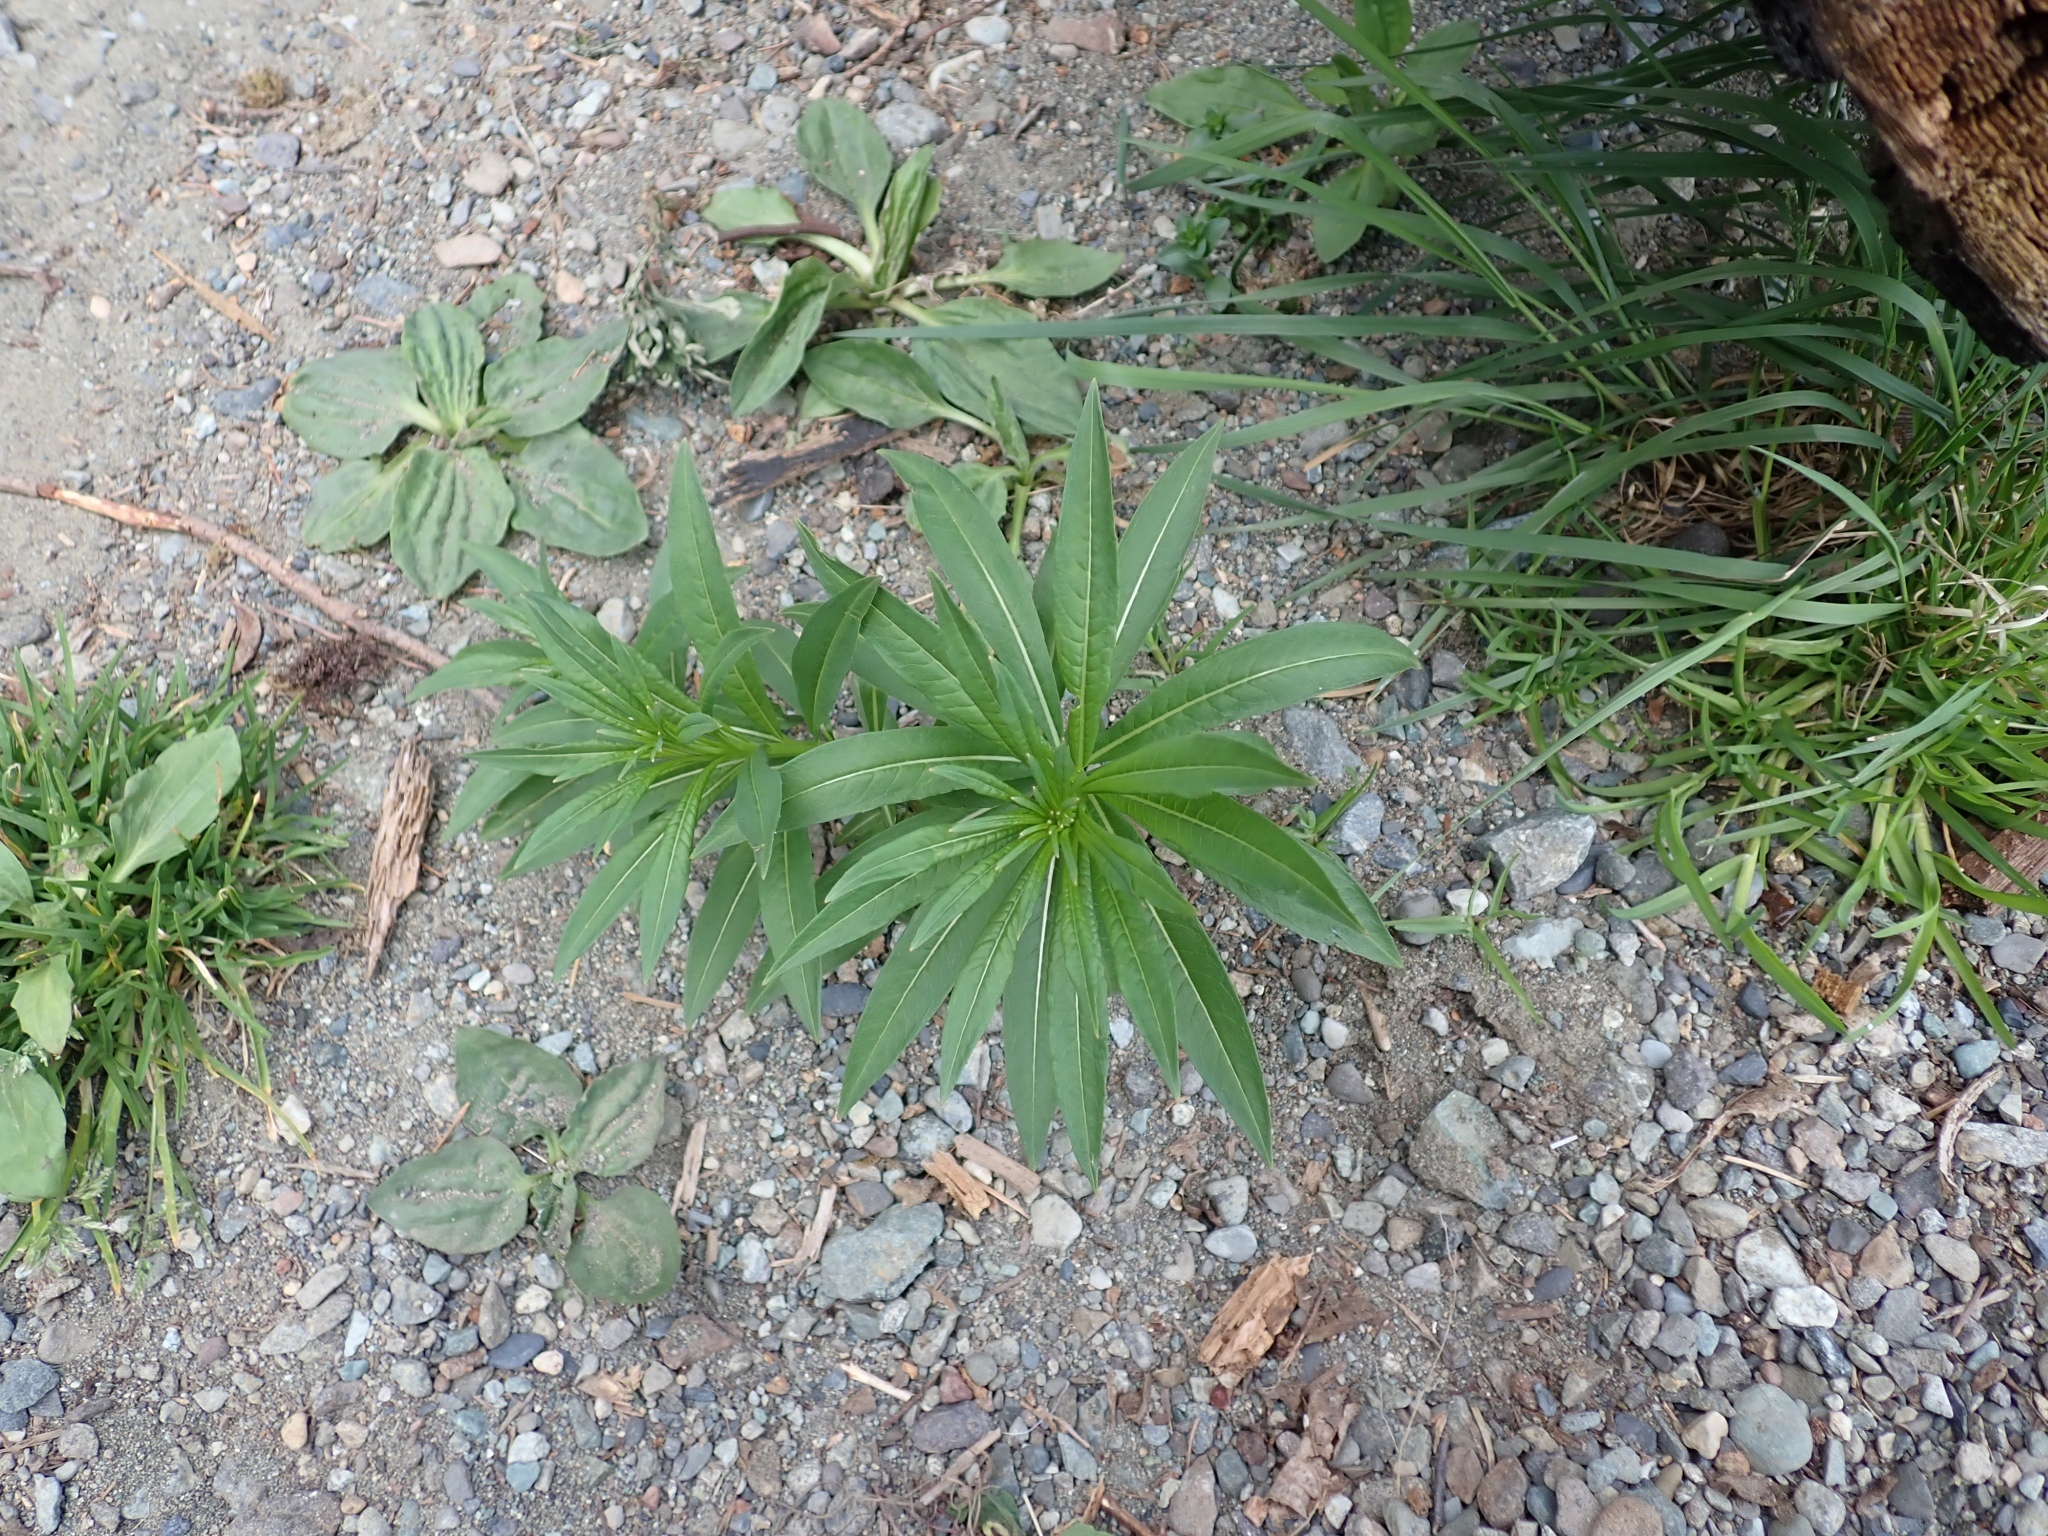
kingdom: Plantae
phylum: Tracheophyta
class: Magnoliopsida
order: Myrtales
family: Onagraceae
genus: Chamaenerion
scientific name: Chamaenerion angustifolium
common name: Fireweed
